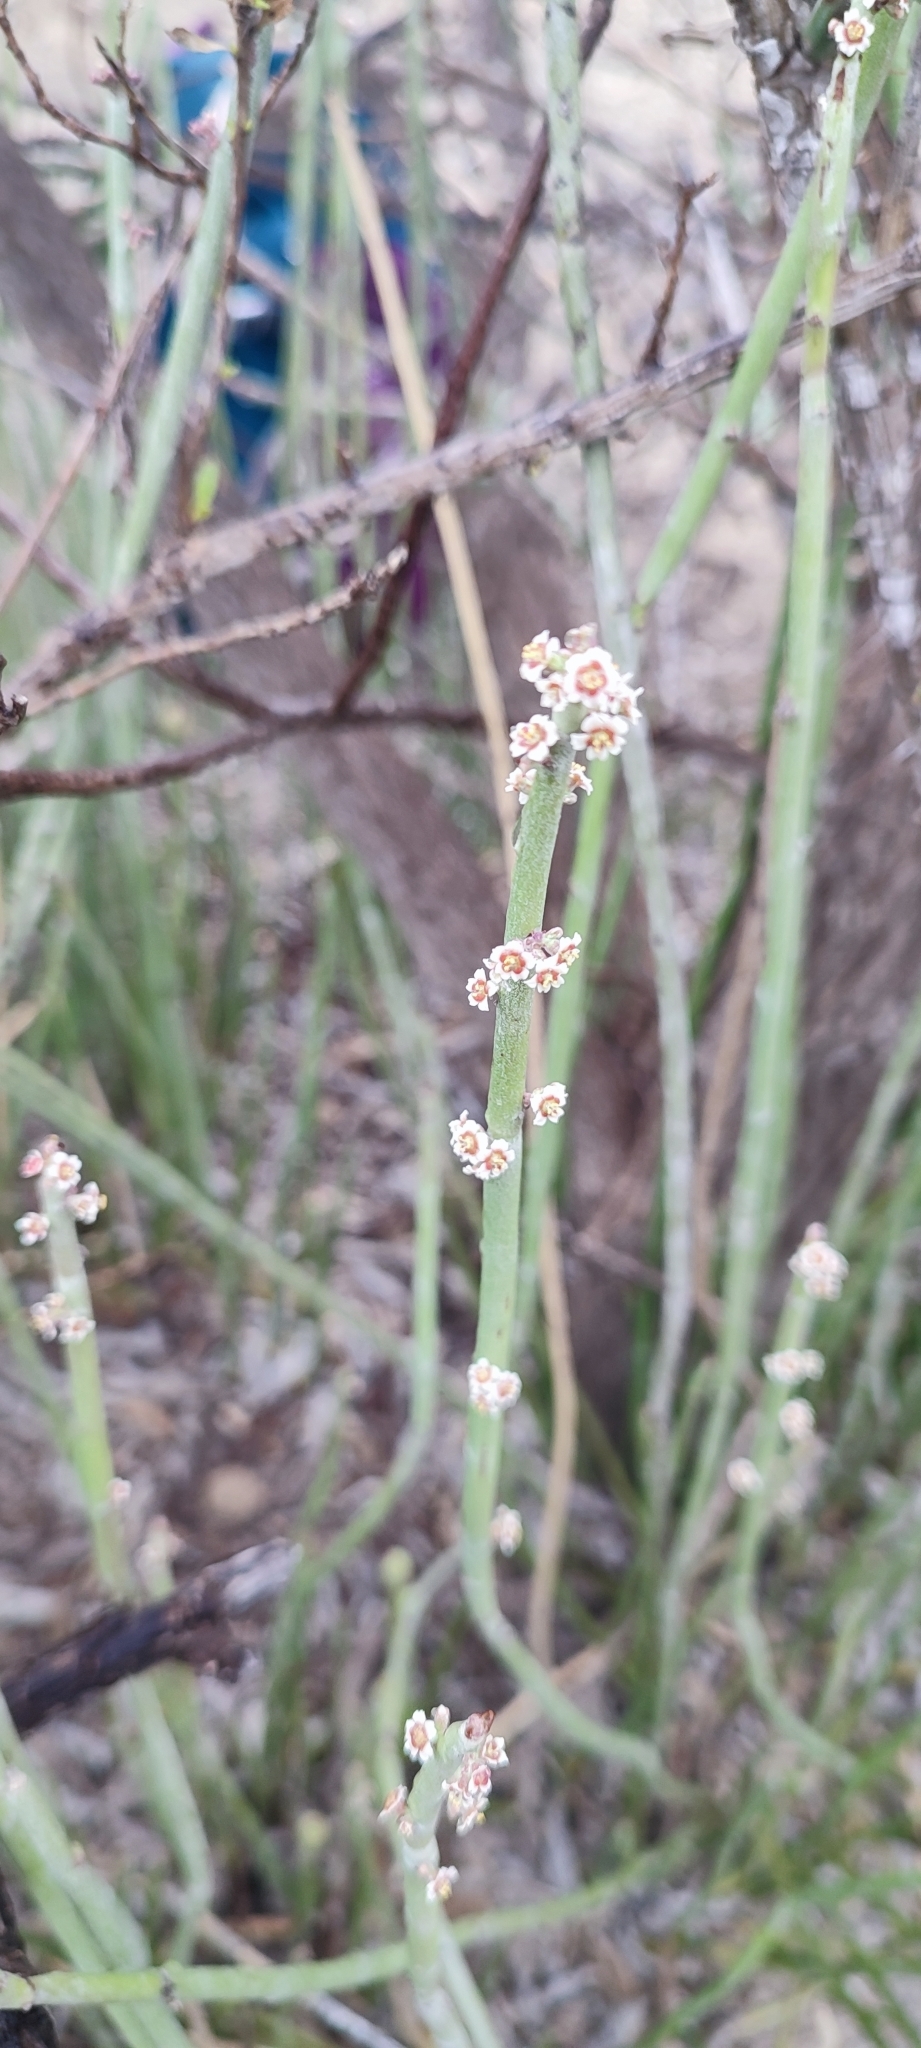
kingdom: Plantae
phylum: Tracheophyta
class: Magnoliopsida
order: Malpighiales
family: Euphorbiaceae
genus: Euphorbia
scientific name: Euphorbia antisyphilitica
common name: Candelilla
